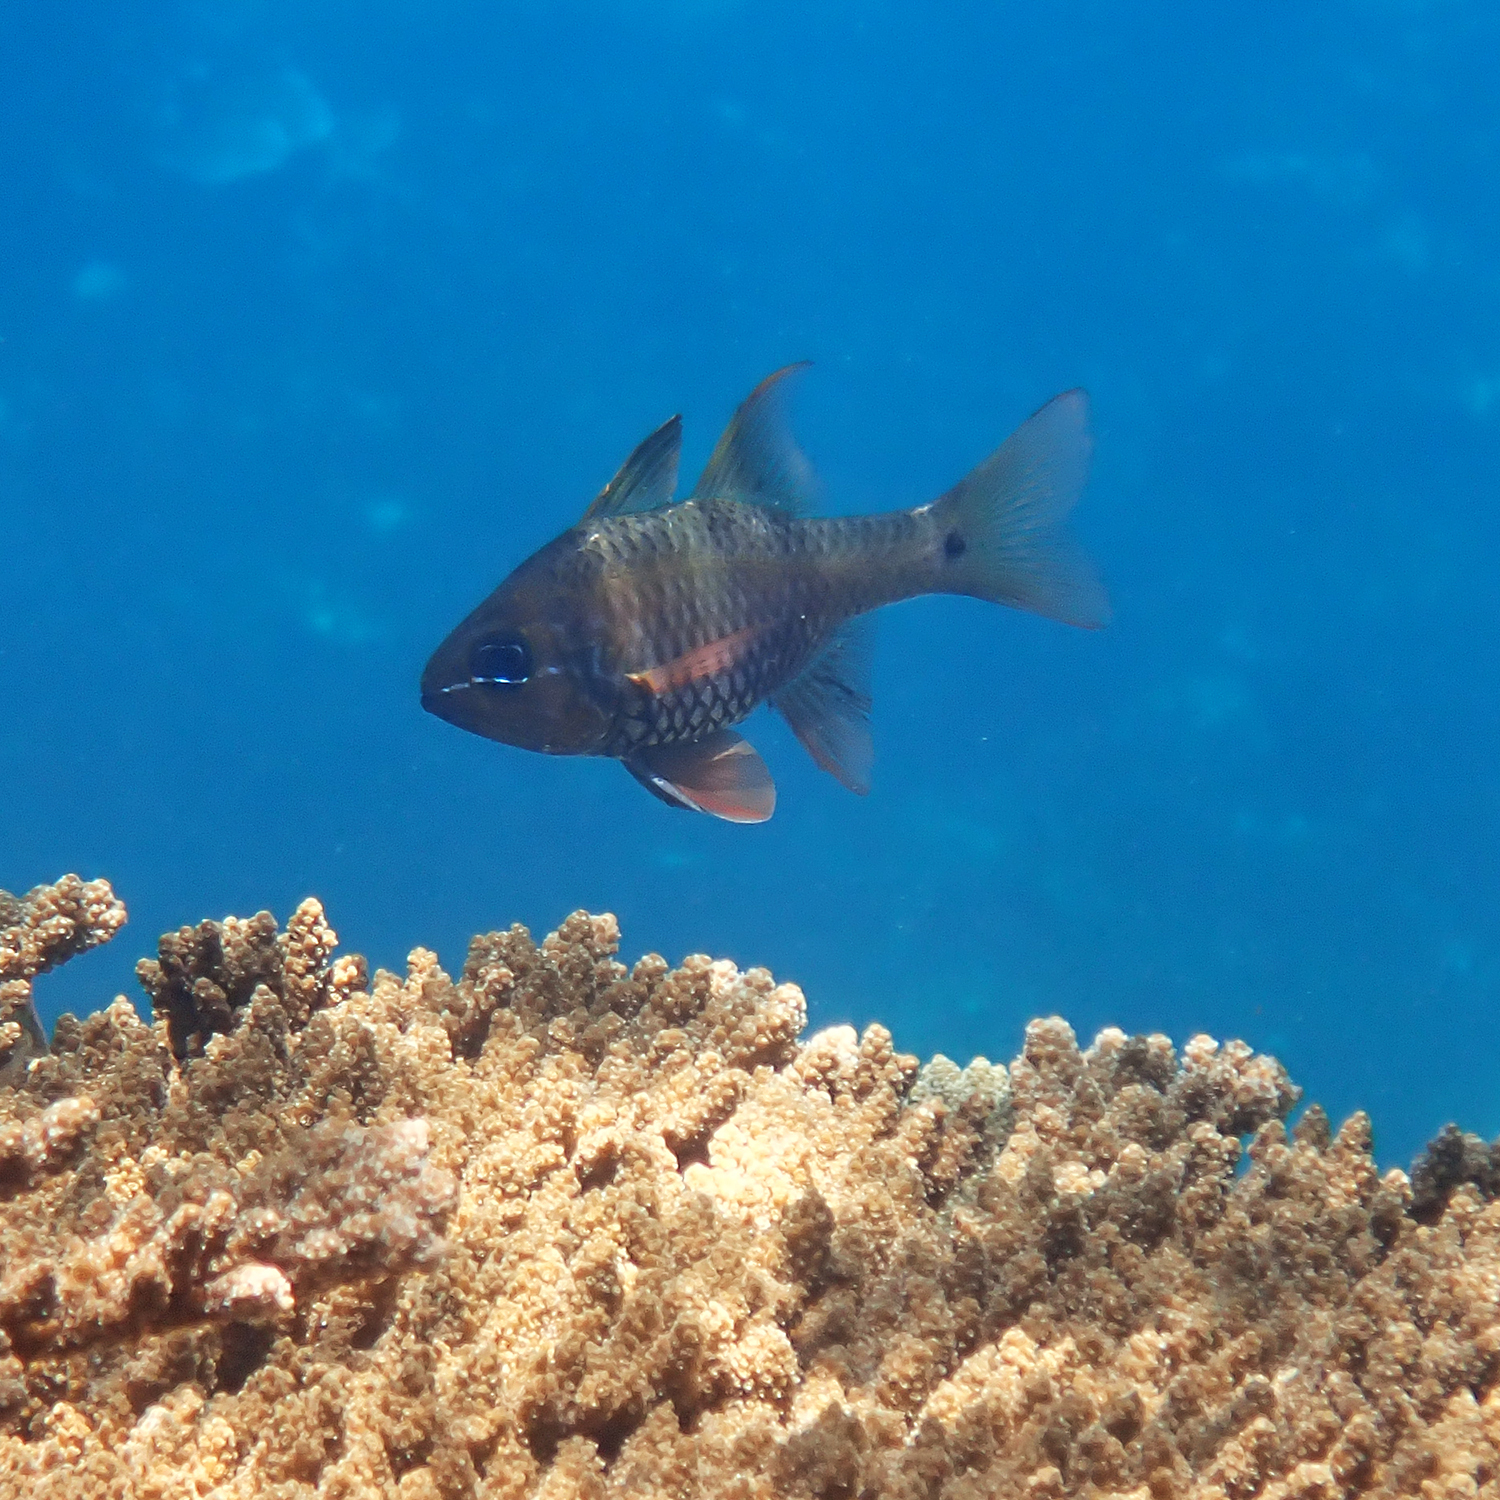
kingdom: Animalia
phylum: Chordata
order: Perciformes
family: Apogonidae
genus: Ostorhinchus
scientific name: Ostorhinchus norfolcensis
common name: Norfolk cardinalfish
